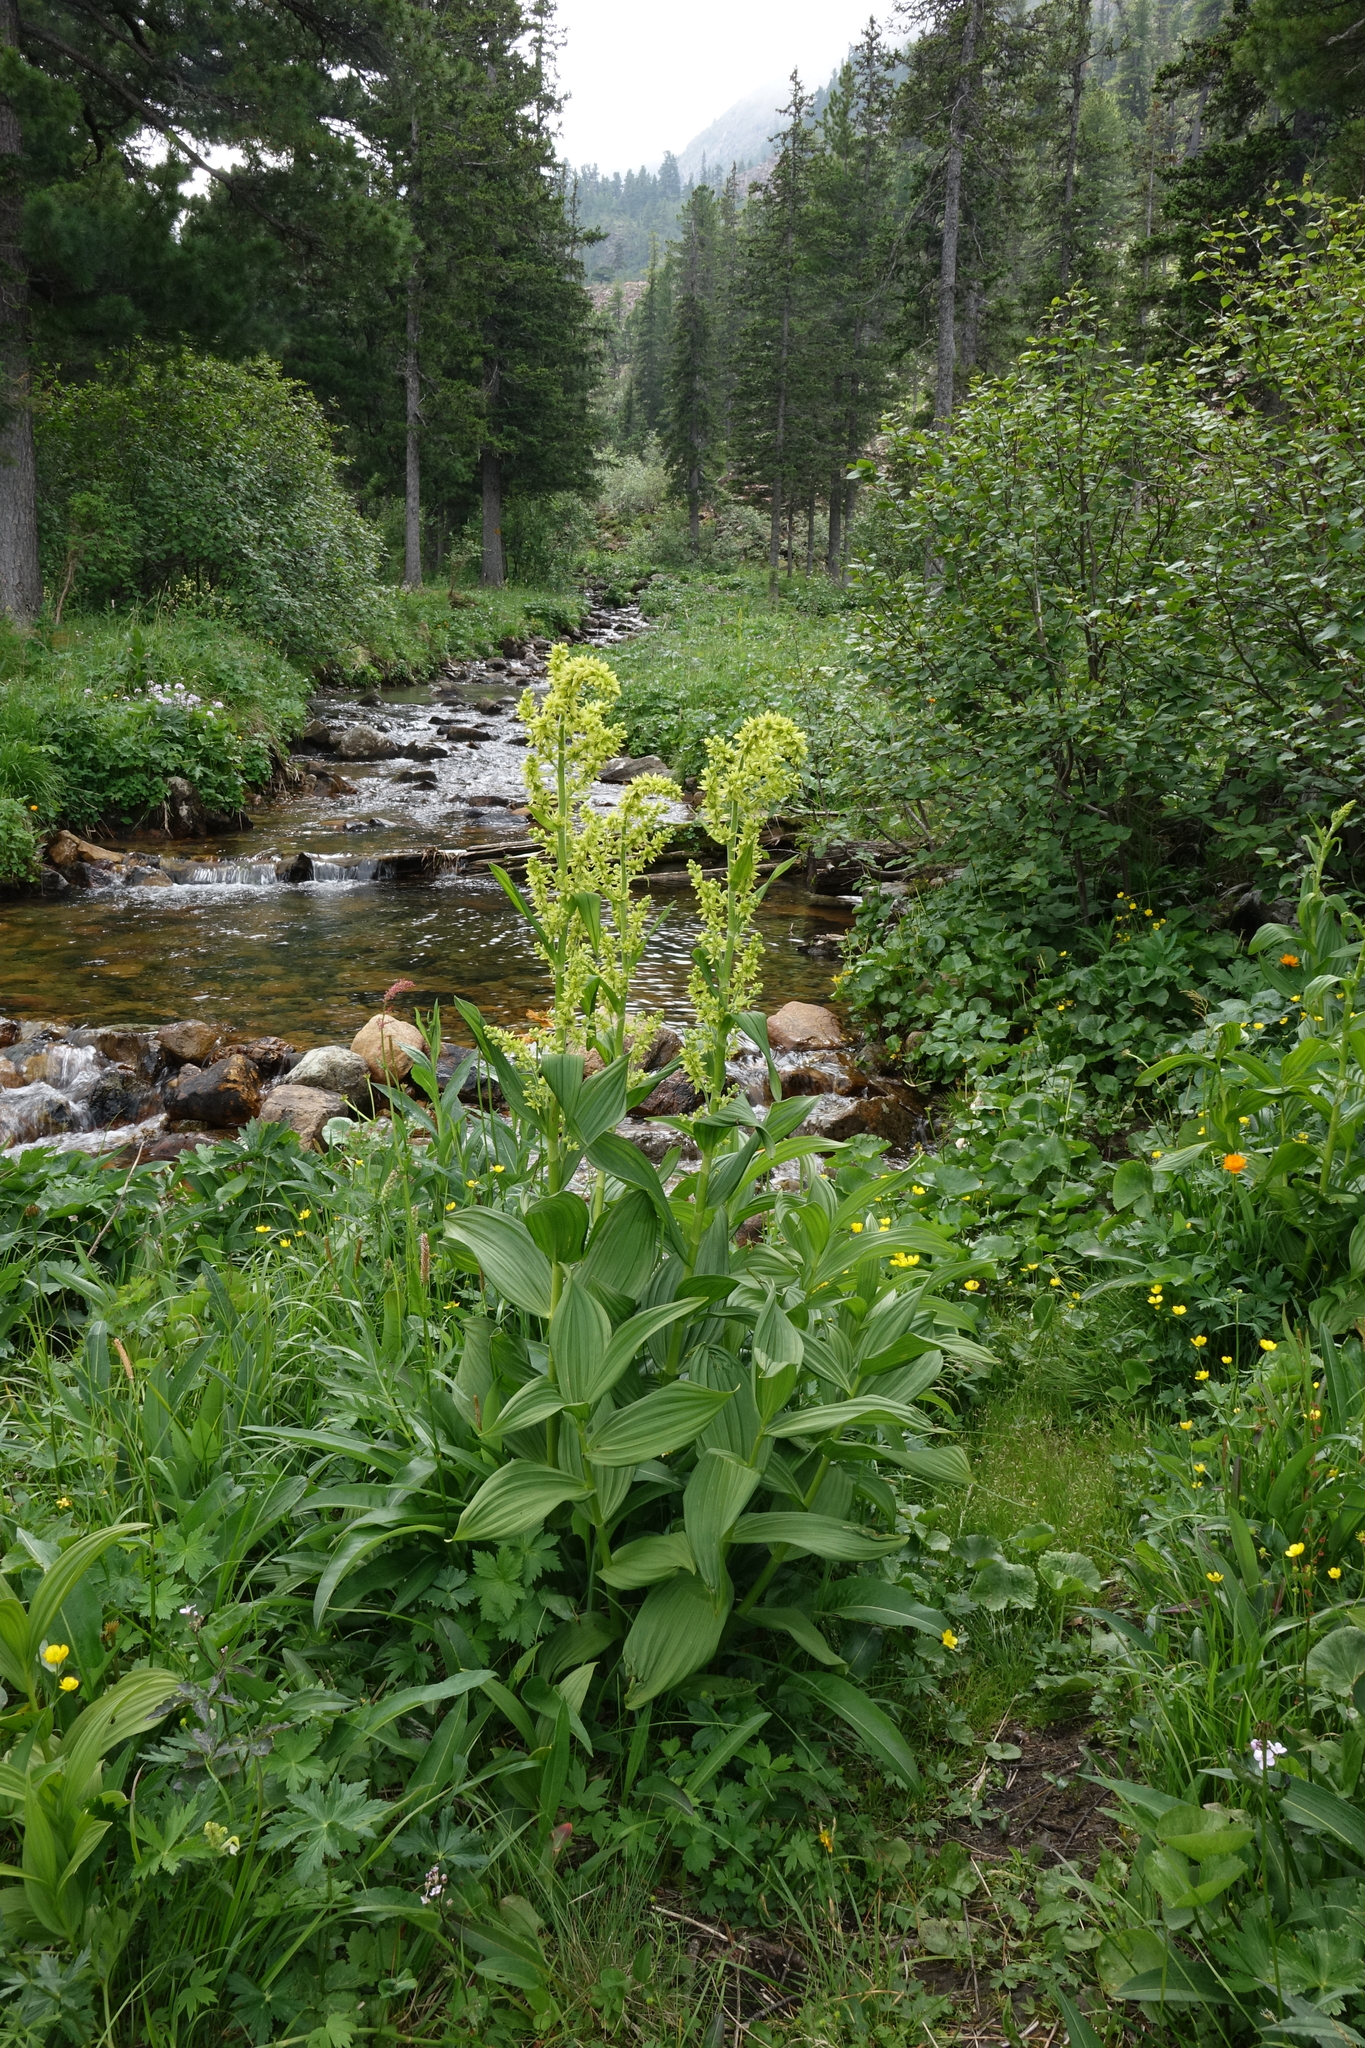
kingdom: Plantae
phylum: Tracheophyta
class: Liliopsida
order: Liliales
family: Melanthiaceae
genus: Veratrum
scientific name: Veratrum lobelianum
